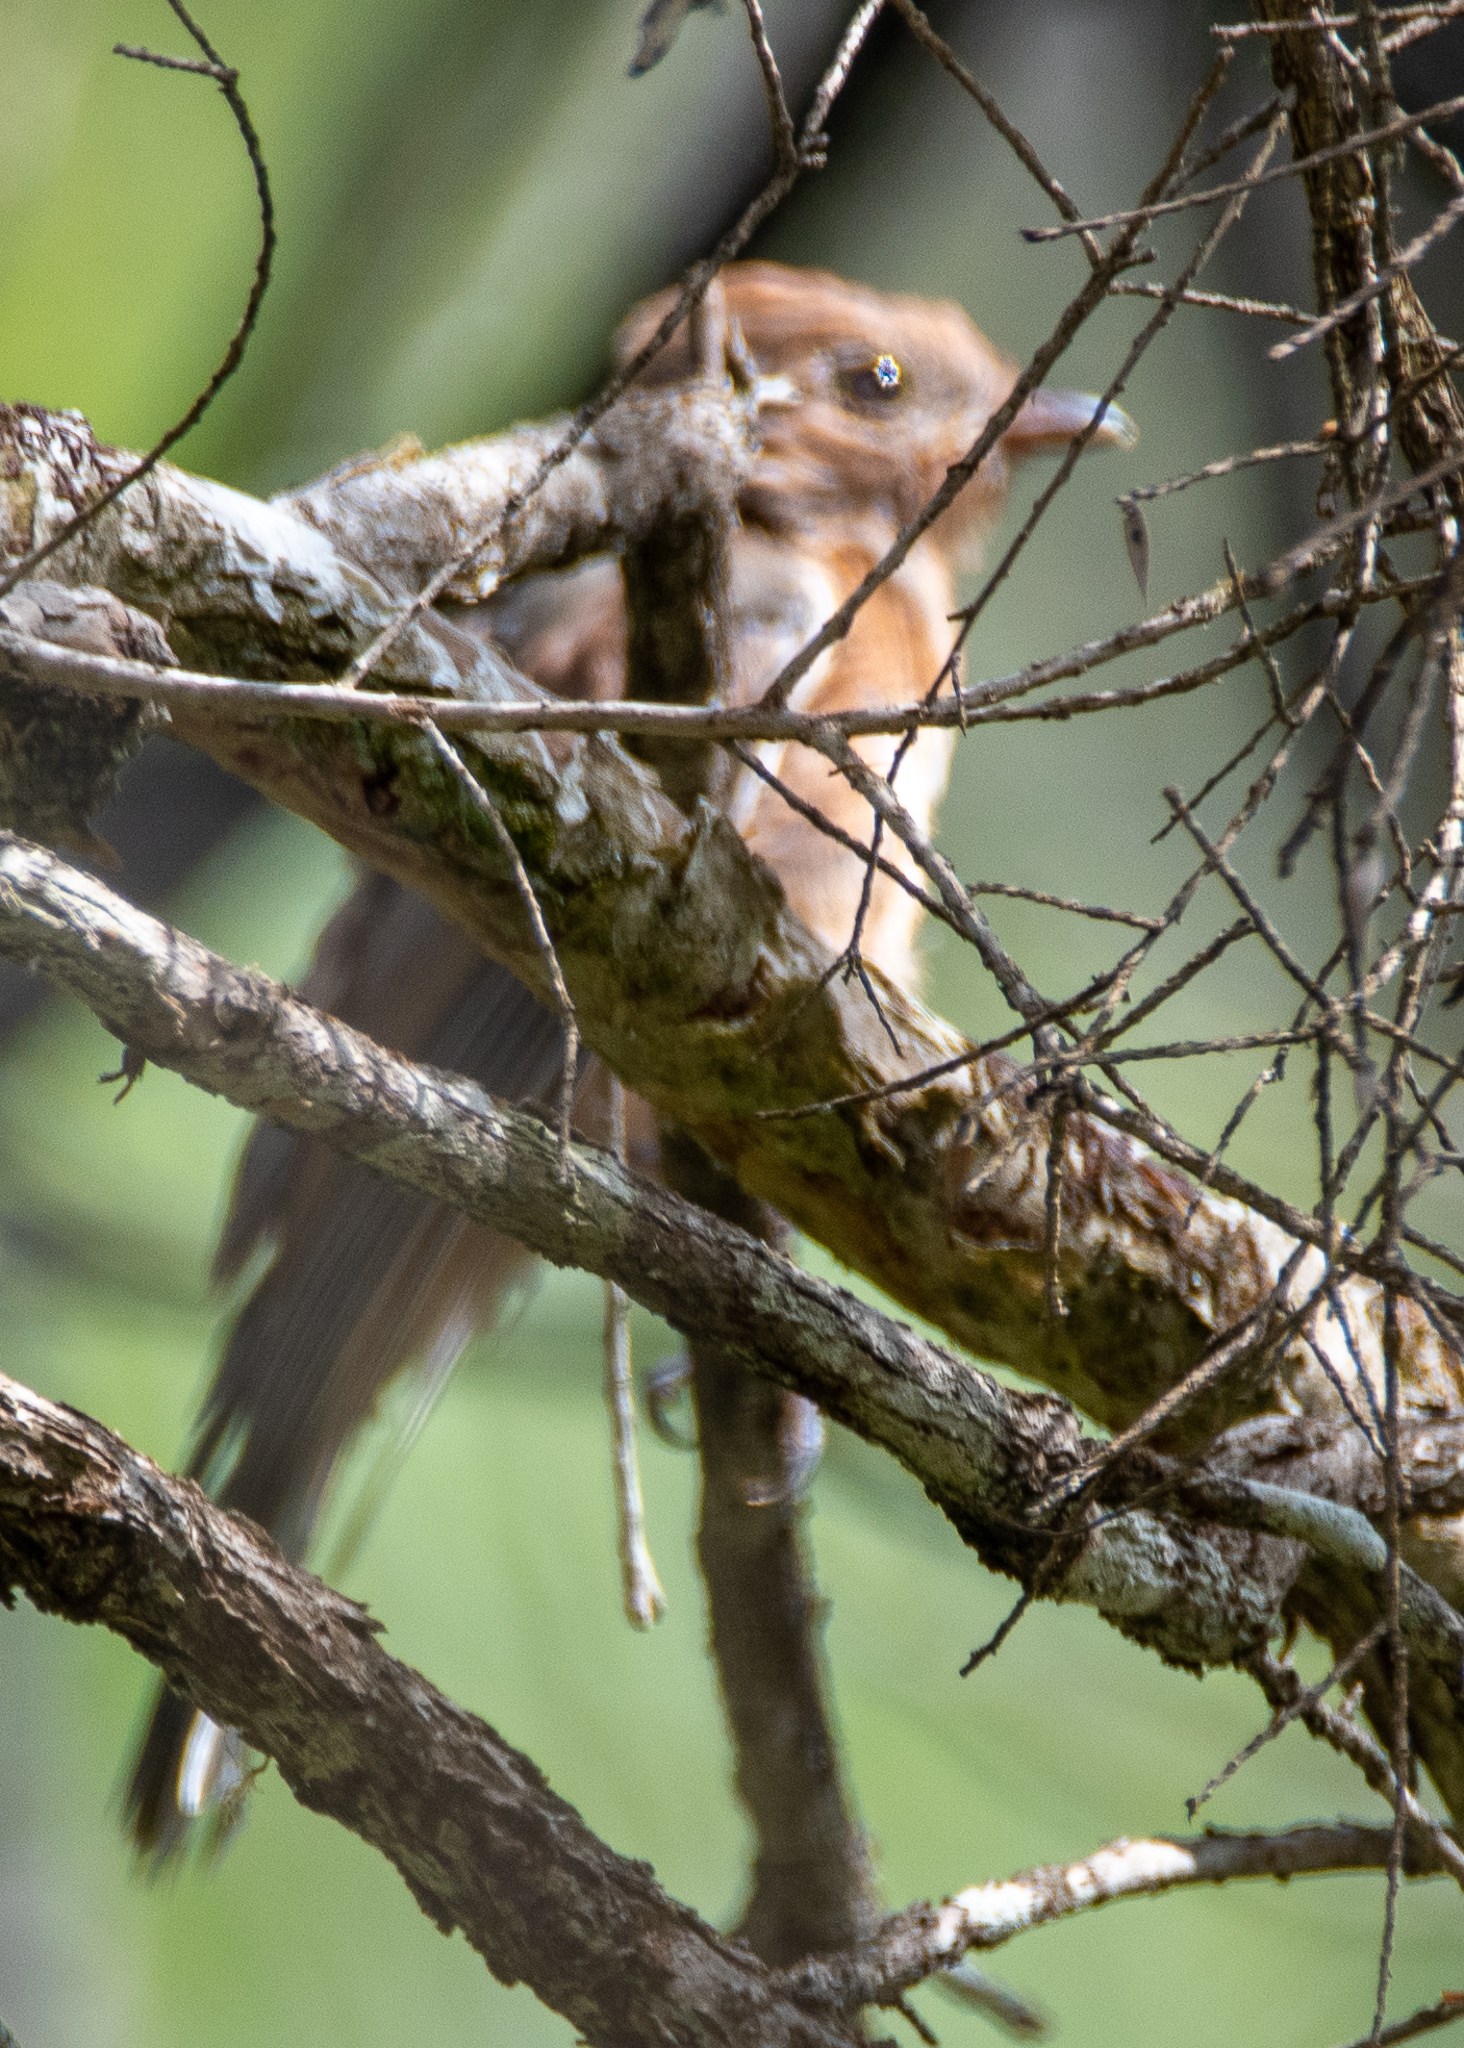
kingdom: Animalia
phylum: Chordata
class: Aves
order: Passeriformes
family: Pachycephalidae
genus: Pachycephala
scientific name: Pachycephala pectoralis
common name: Australian golden whistler
